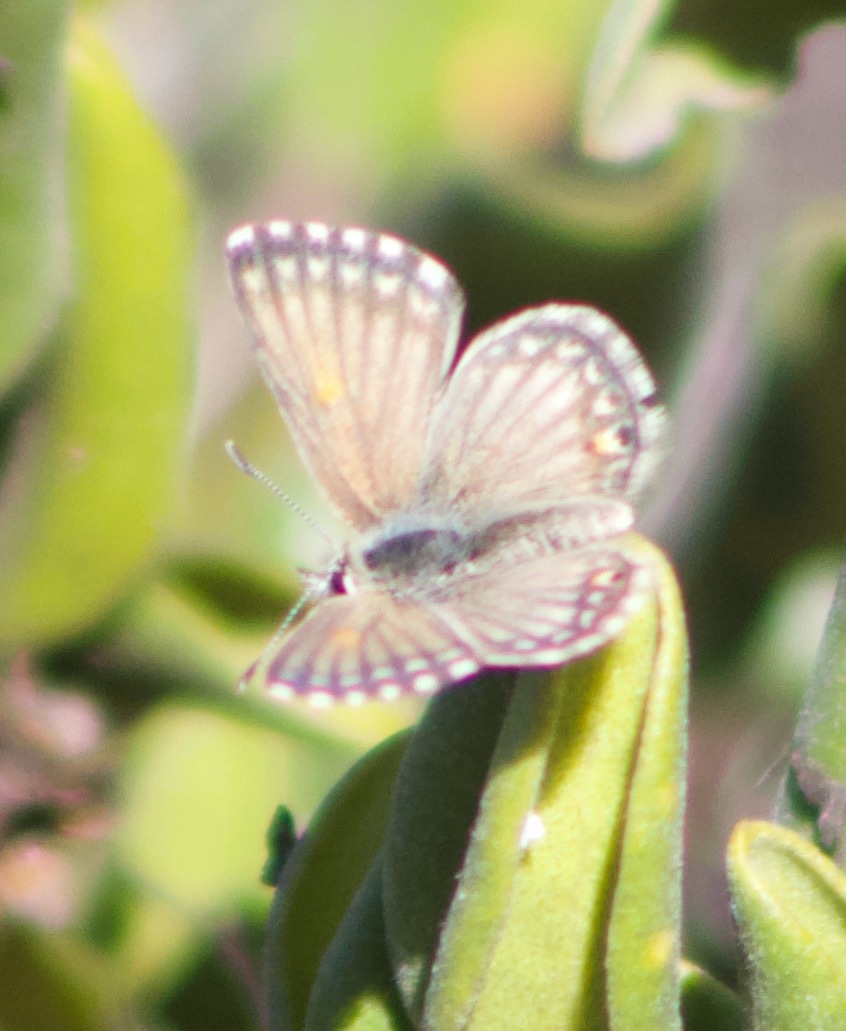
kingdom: Animalia
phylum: Arthropoda
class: Insecta
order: Lepidoptera
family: Lycaenidae
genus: Pseudolucia
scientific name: Pseudolucia chilensis
